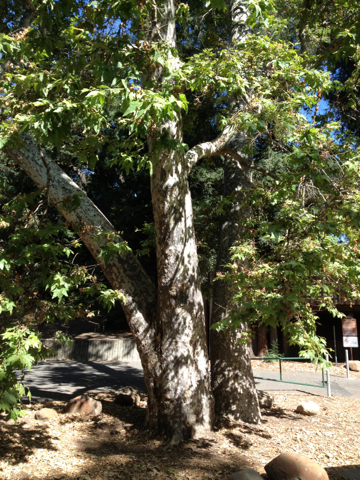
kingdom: Plantae
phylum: Tracheophyta
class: Magnoliopsida
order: Proteales
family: Platanaceae
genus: Platanus
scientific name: Platanus racemosa
